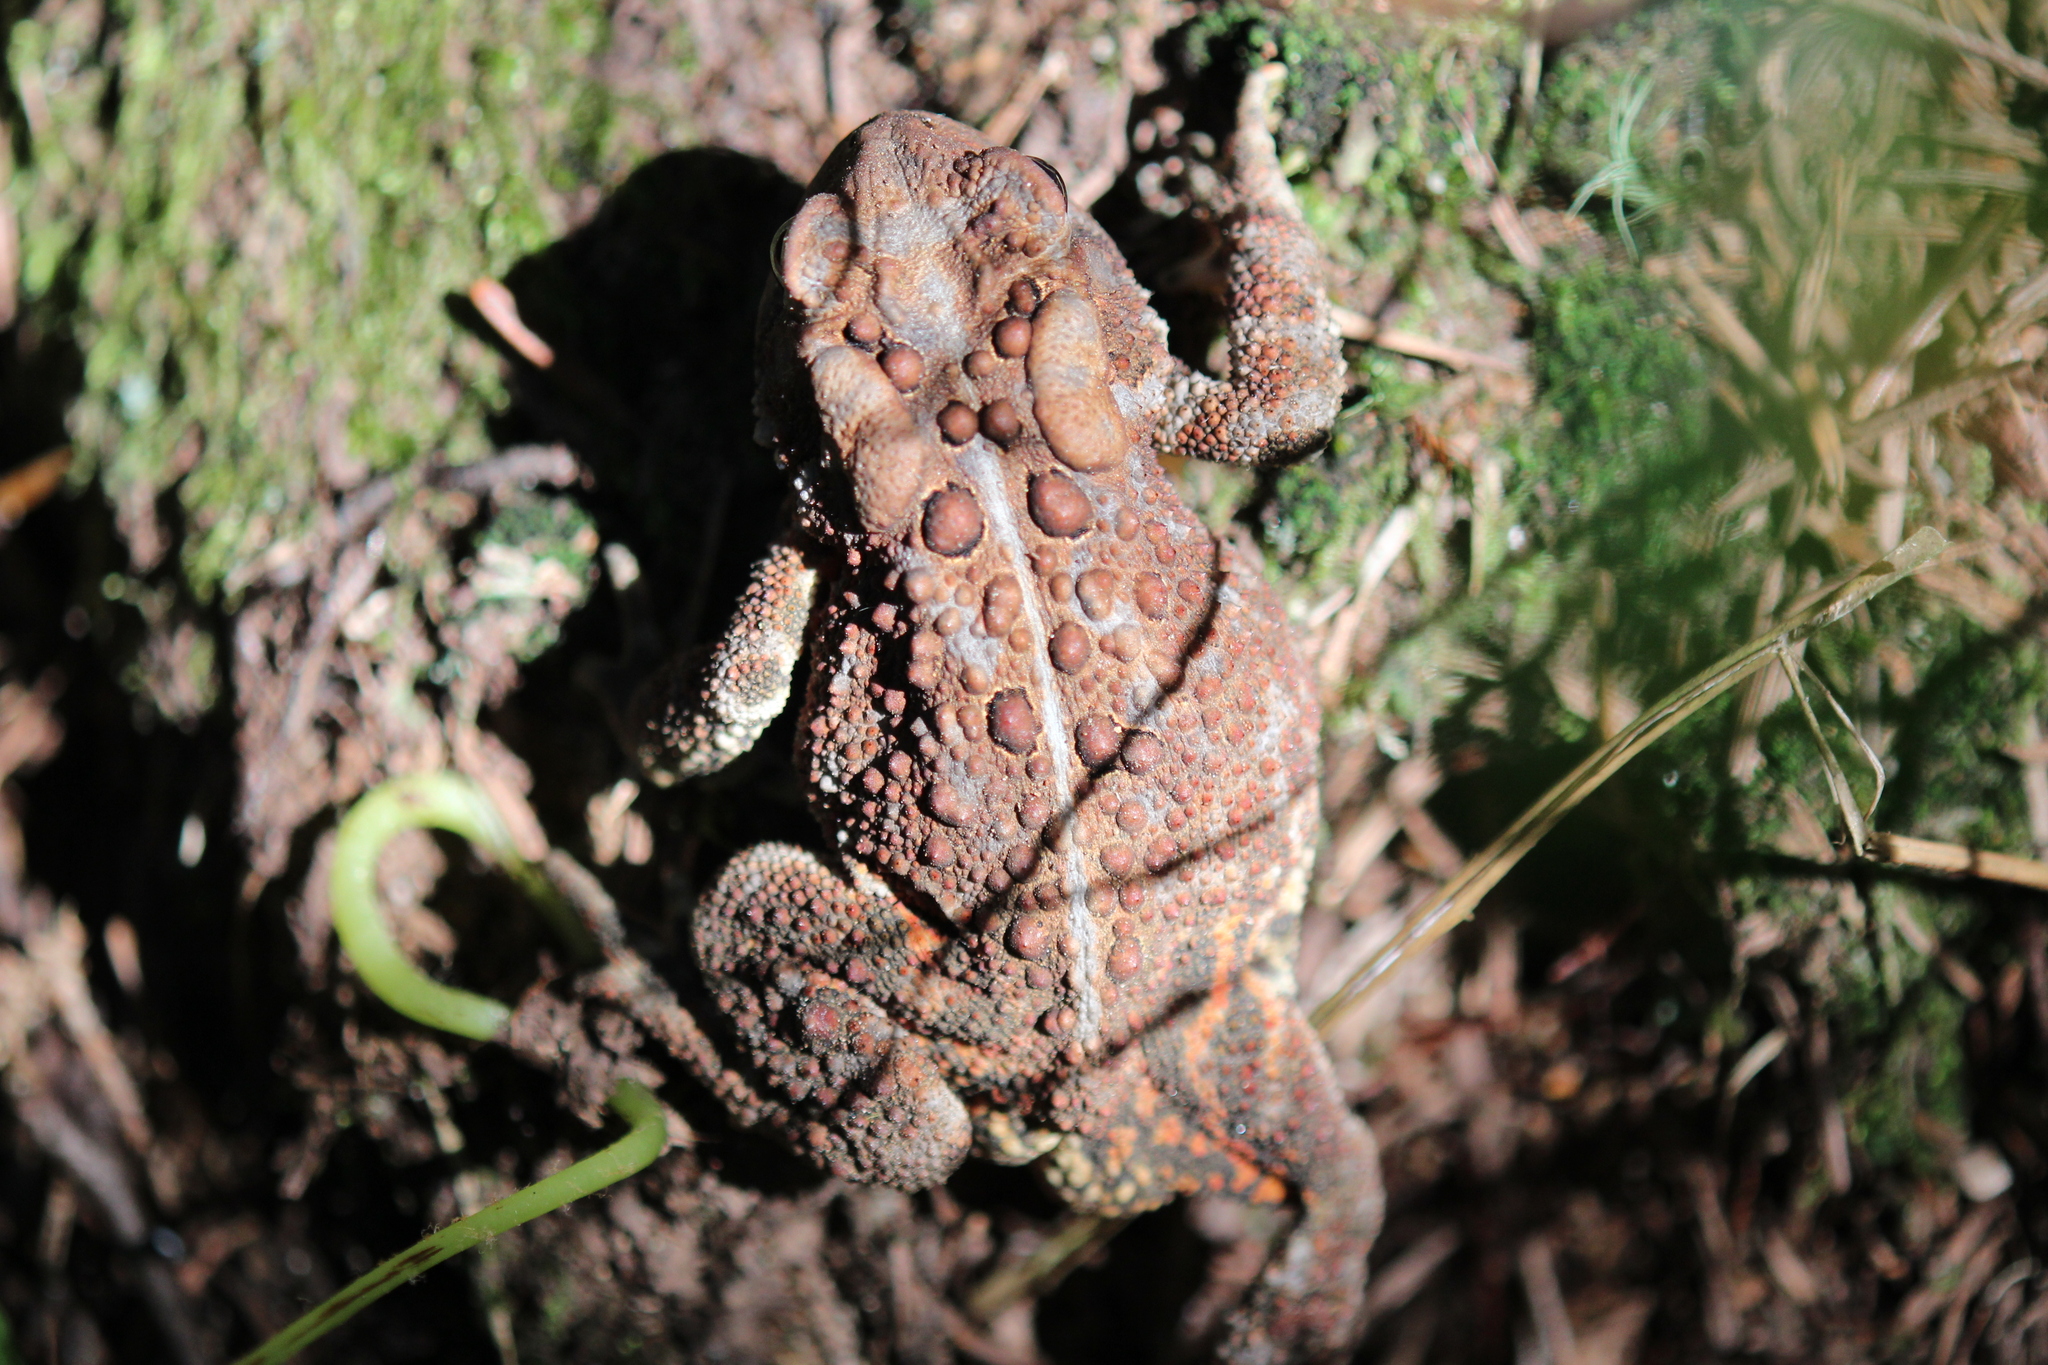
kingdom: Animalia
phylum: Chordata
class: Amphibia
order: Anura
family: Bufonidae
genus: Anaxyrus
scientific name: Anaxyrus americanus
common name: American toad
